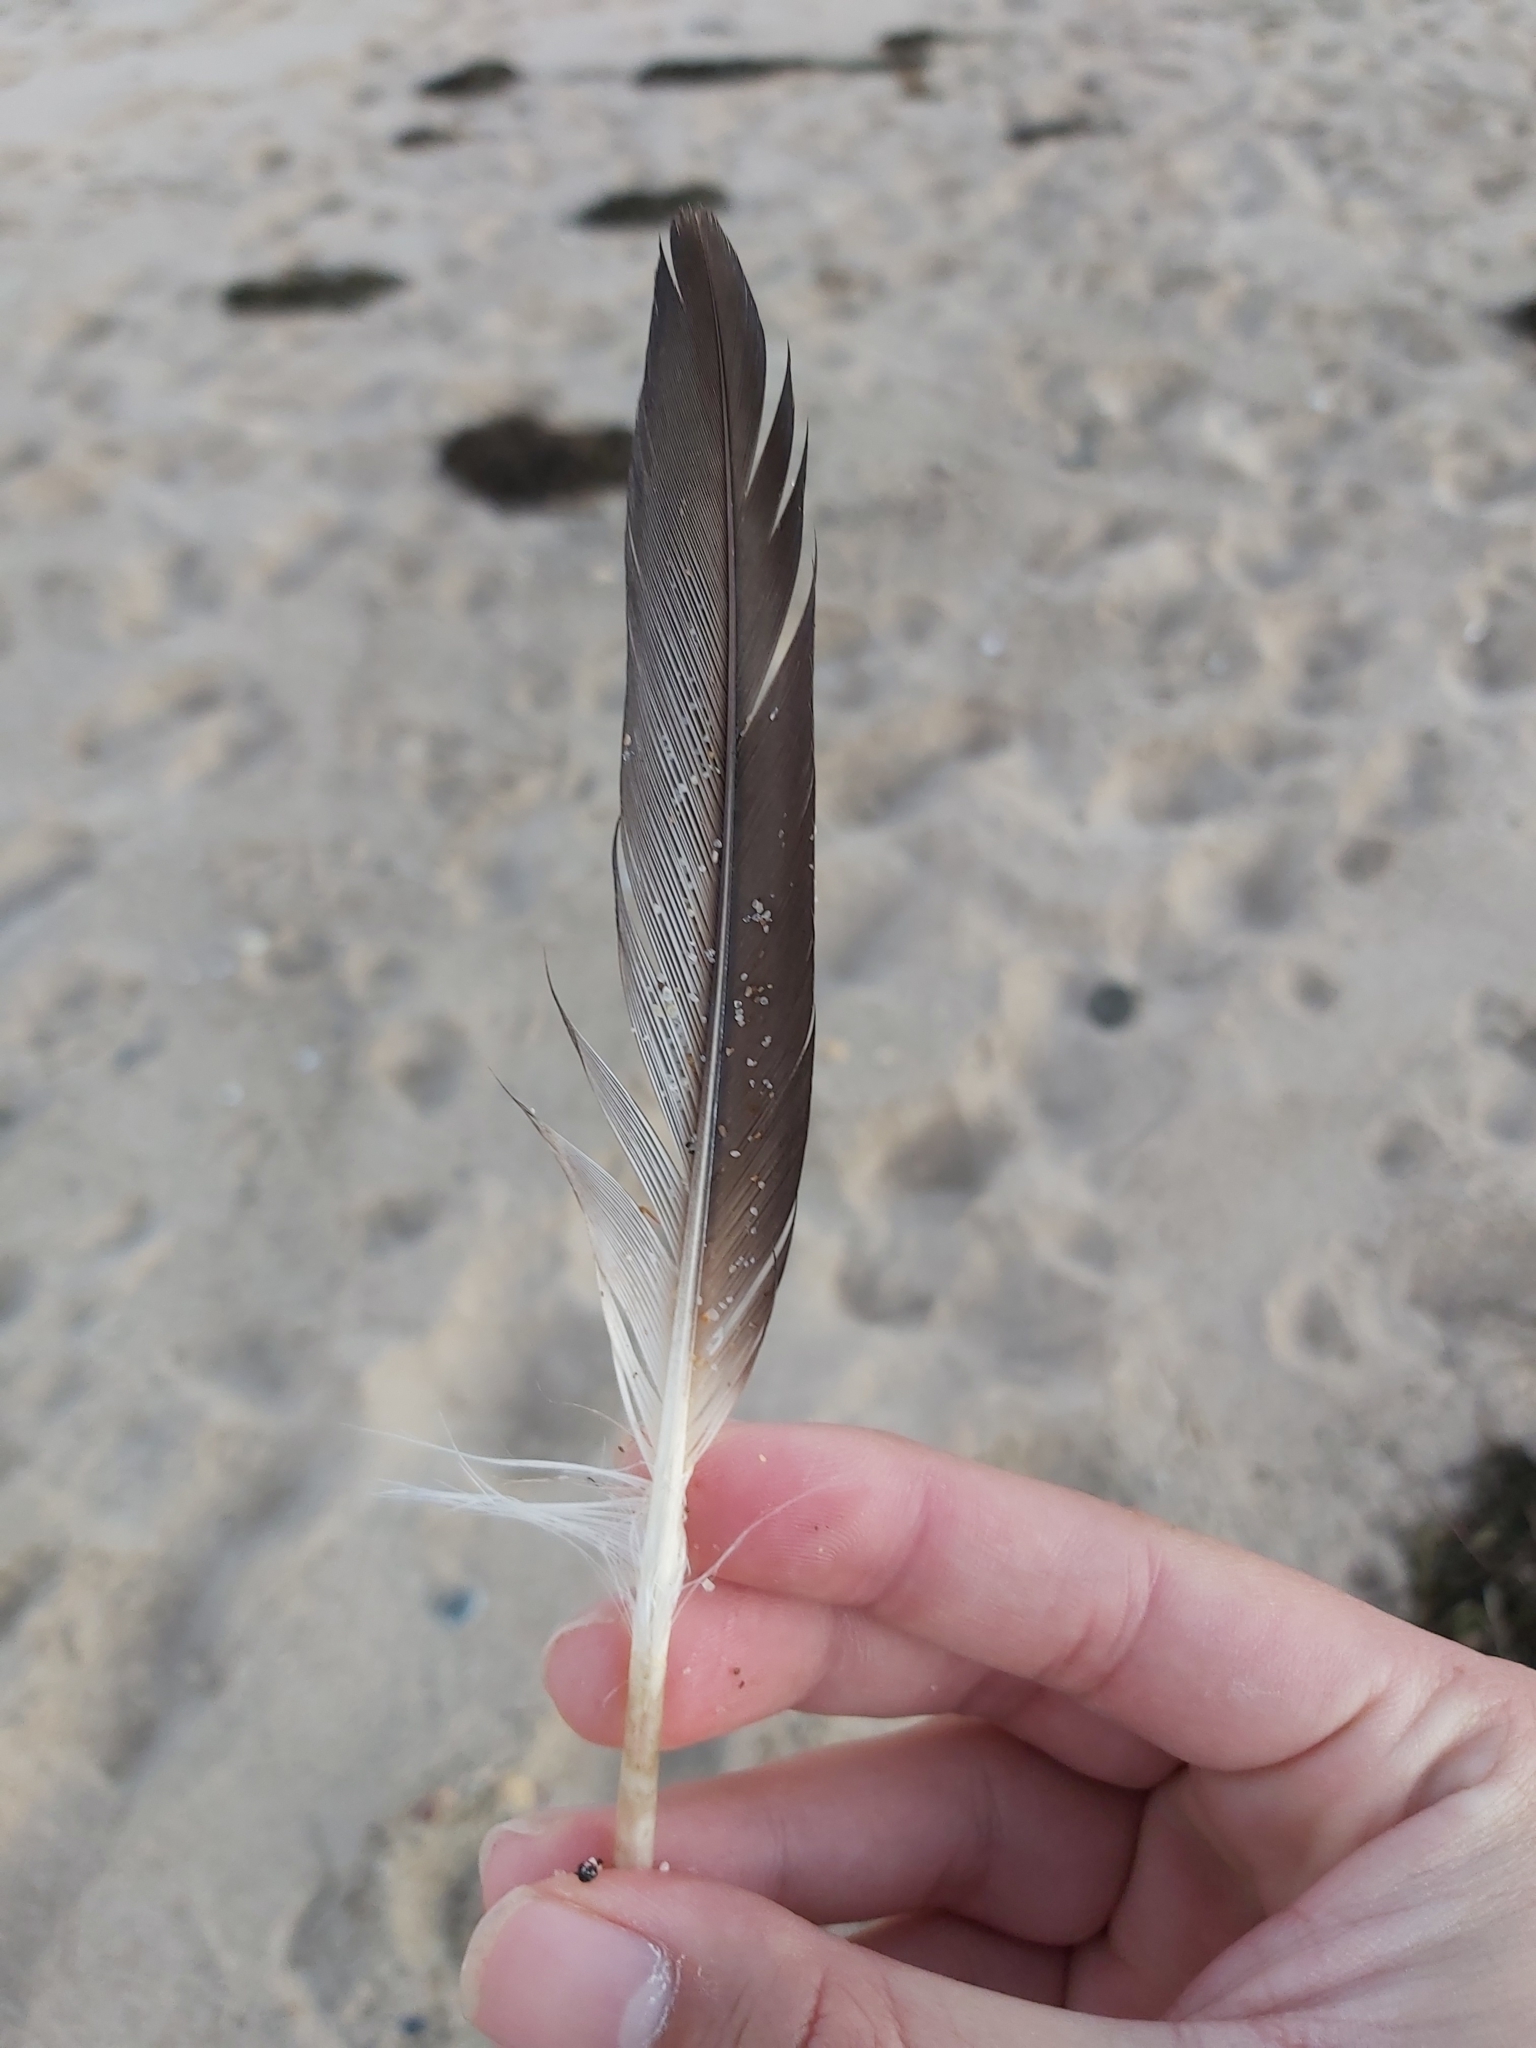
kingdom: Animalia
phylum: Chordata
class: Aves
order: Suliformes
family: Sulidae
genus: Morus
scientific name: Morus serrator
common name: Australasian gannet
